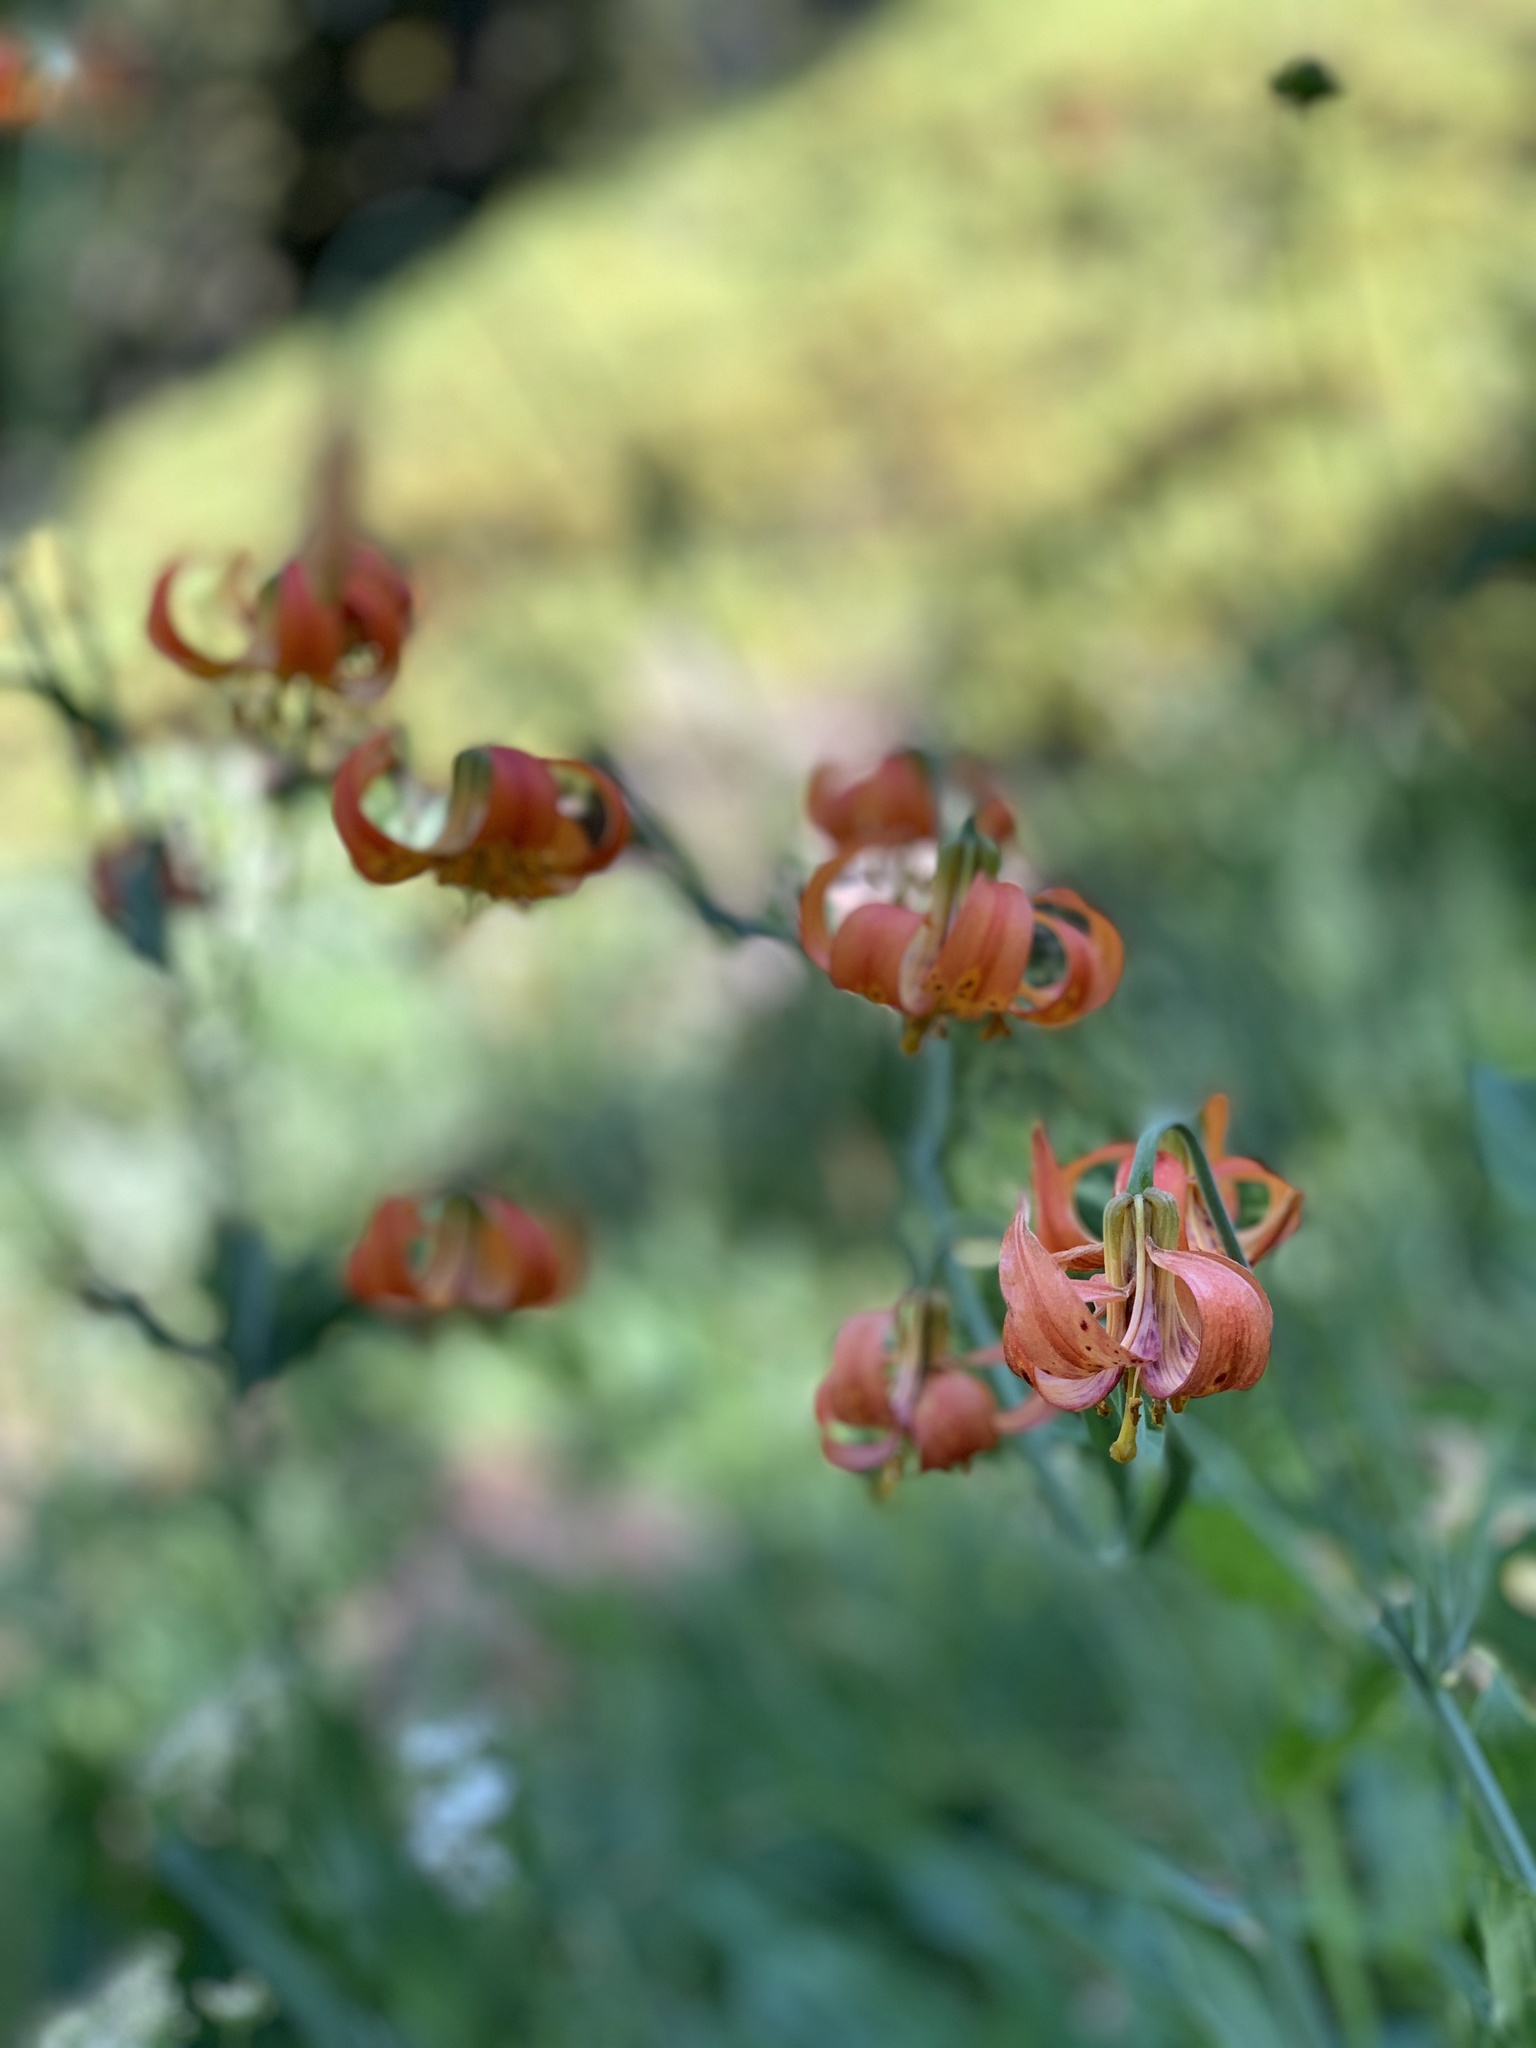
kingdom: Plantae
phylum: Tracheophyta
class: Liliopsida
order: Liliales
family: Liliaceae
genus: Lilium
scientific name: Lilium pardalinum
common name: Panther lily
